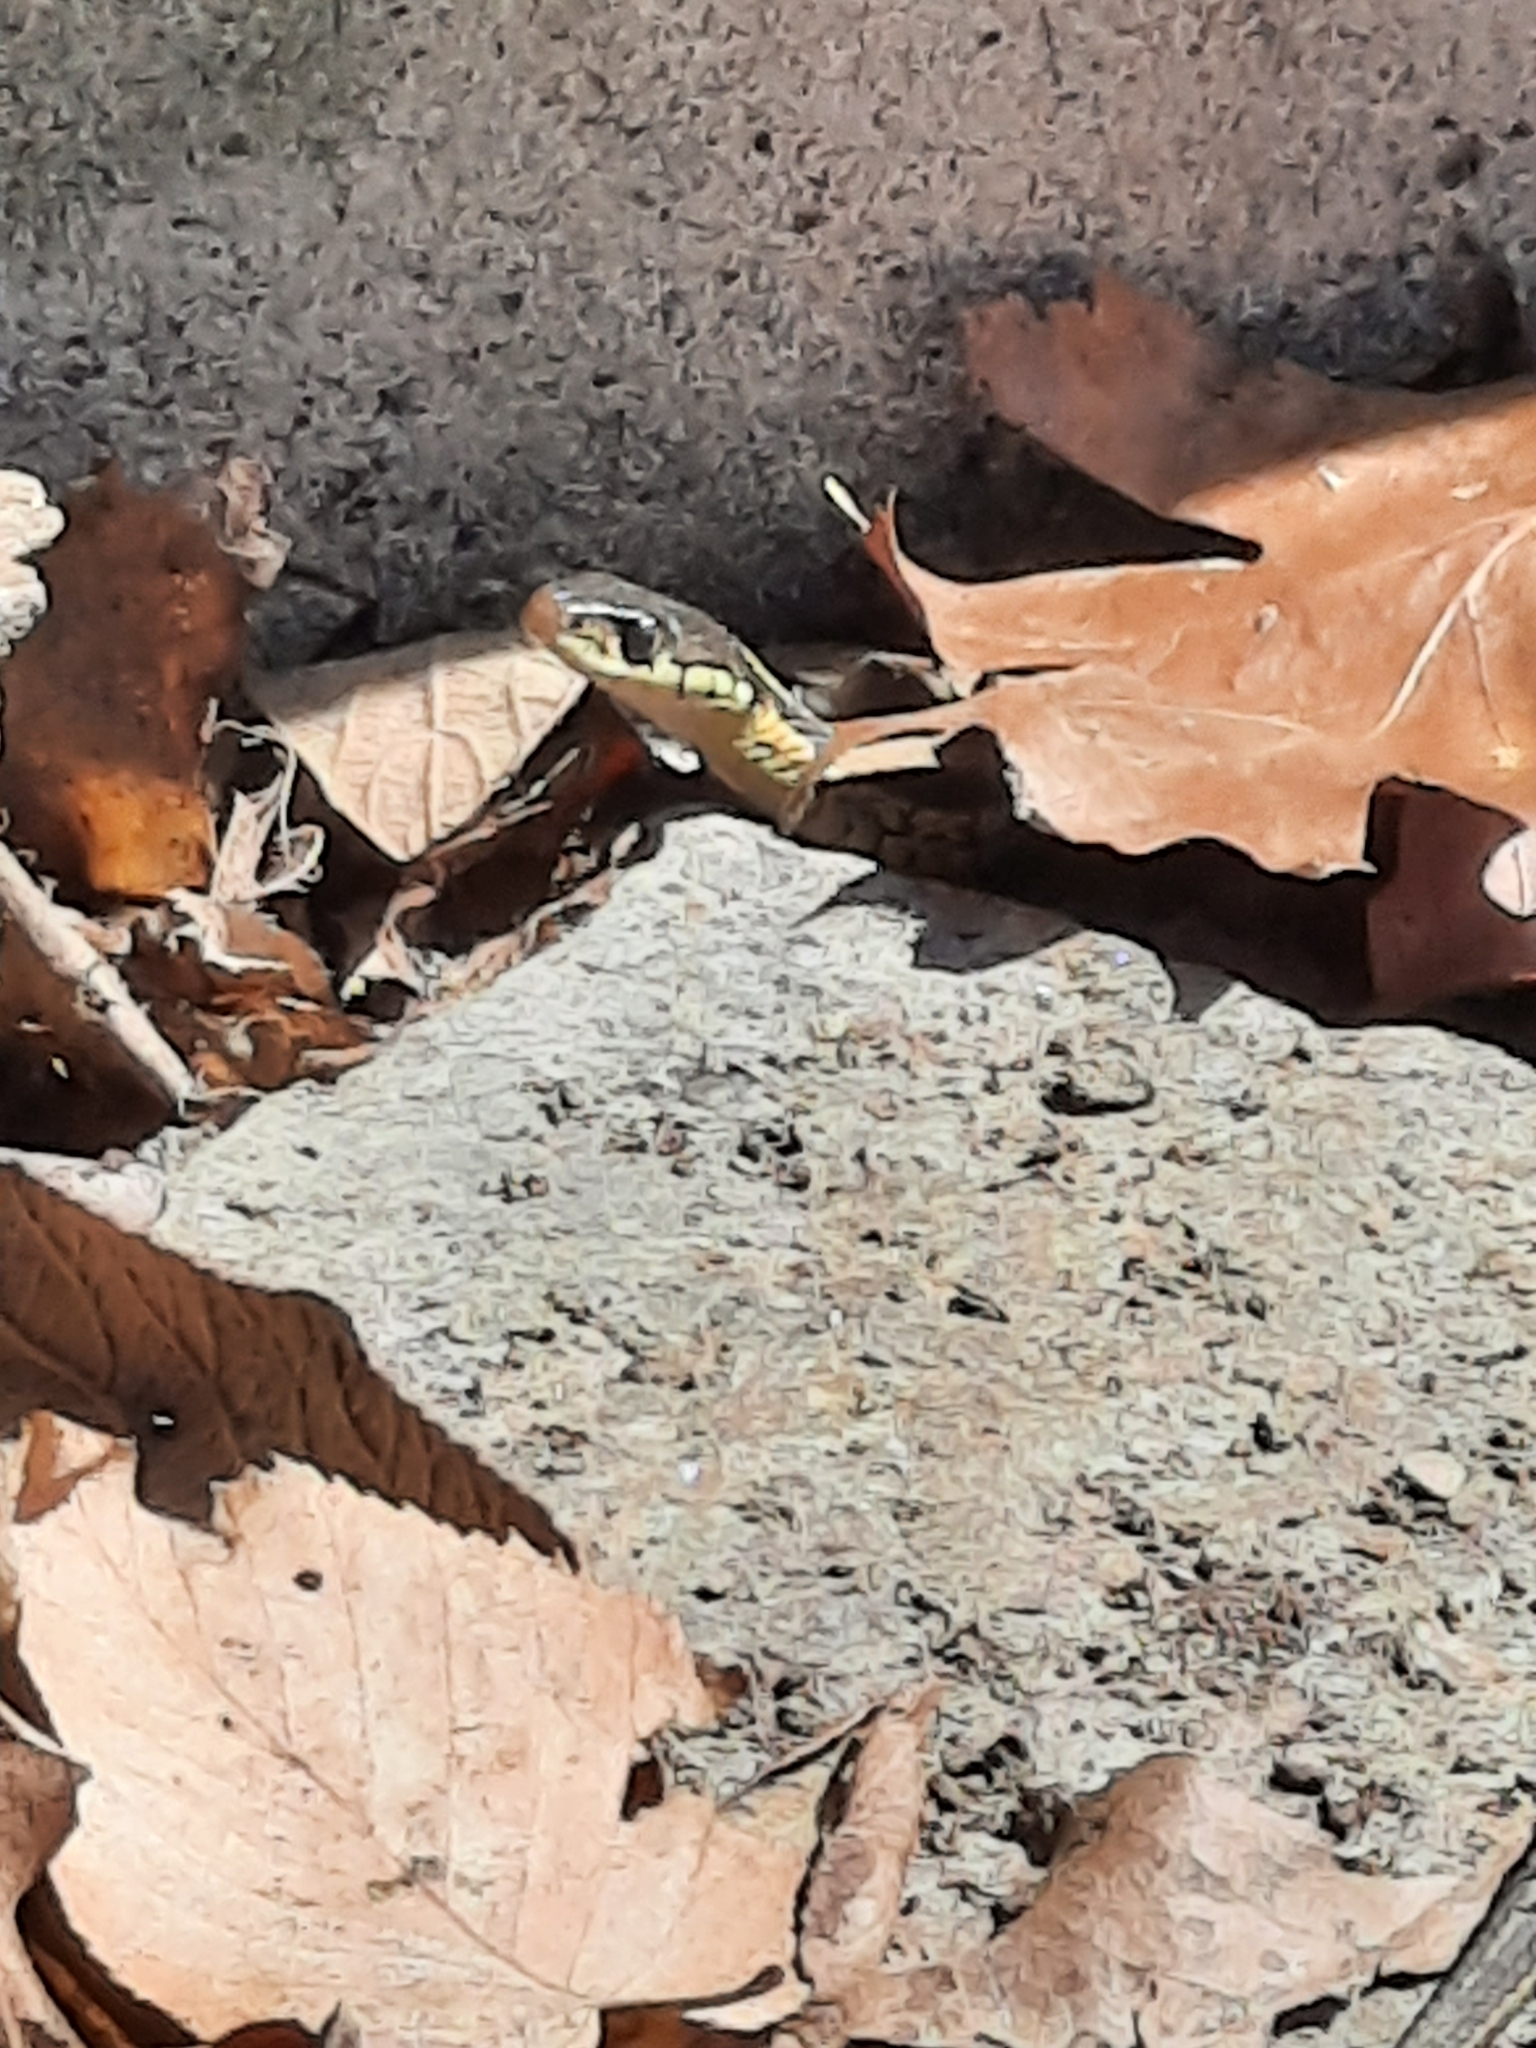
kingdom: Animalia
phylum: Chordata
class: Squamata
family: Colubridae
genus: Thamnophis
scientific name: Thamnophis sirtalis
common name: Common garter snake
